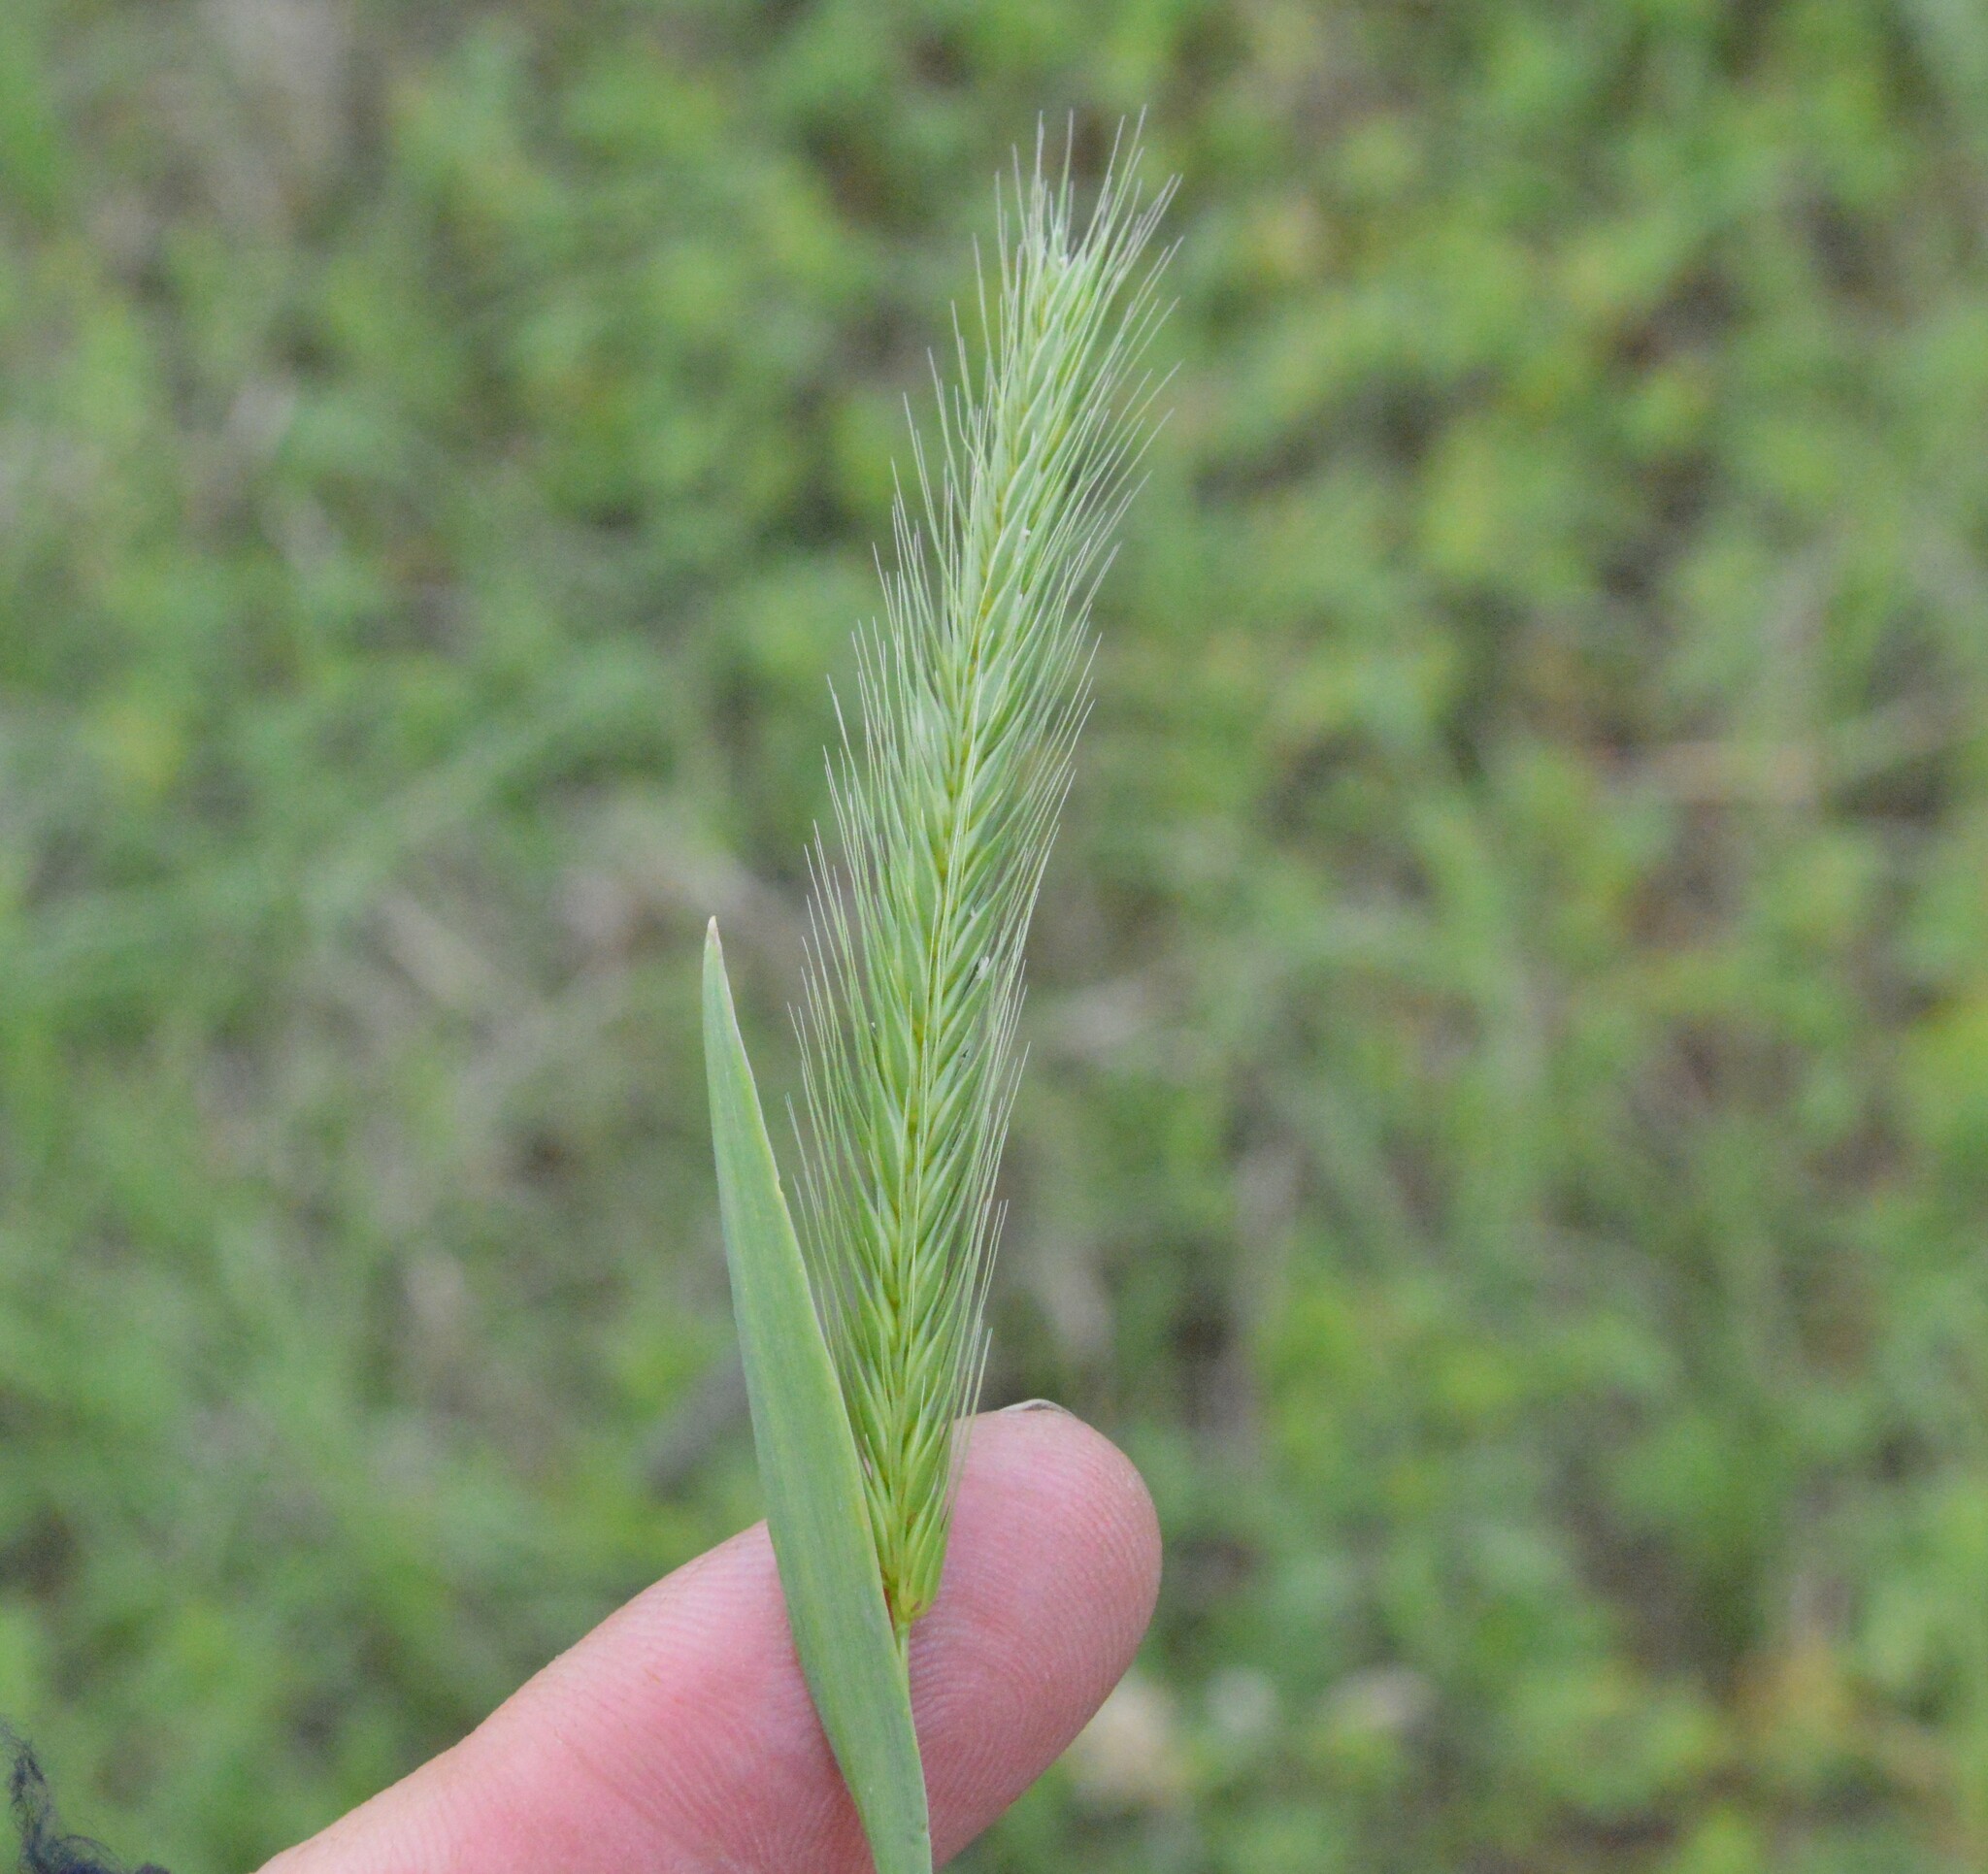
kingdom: Plantae
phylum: Tracheophyta
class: Liliopsida
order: Poales
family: Poaceae
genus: Hordeum
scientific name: Hordeum pusillum
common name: Little barley
